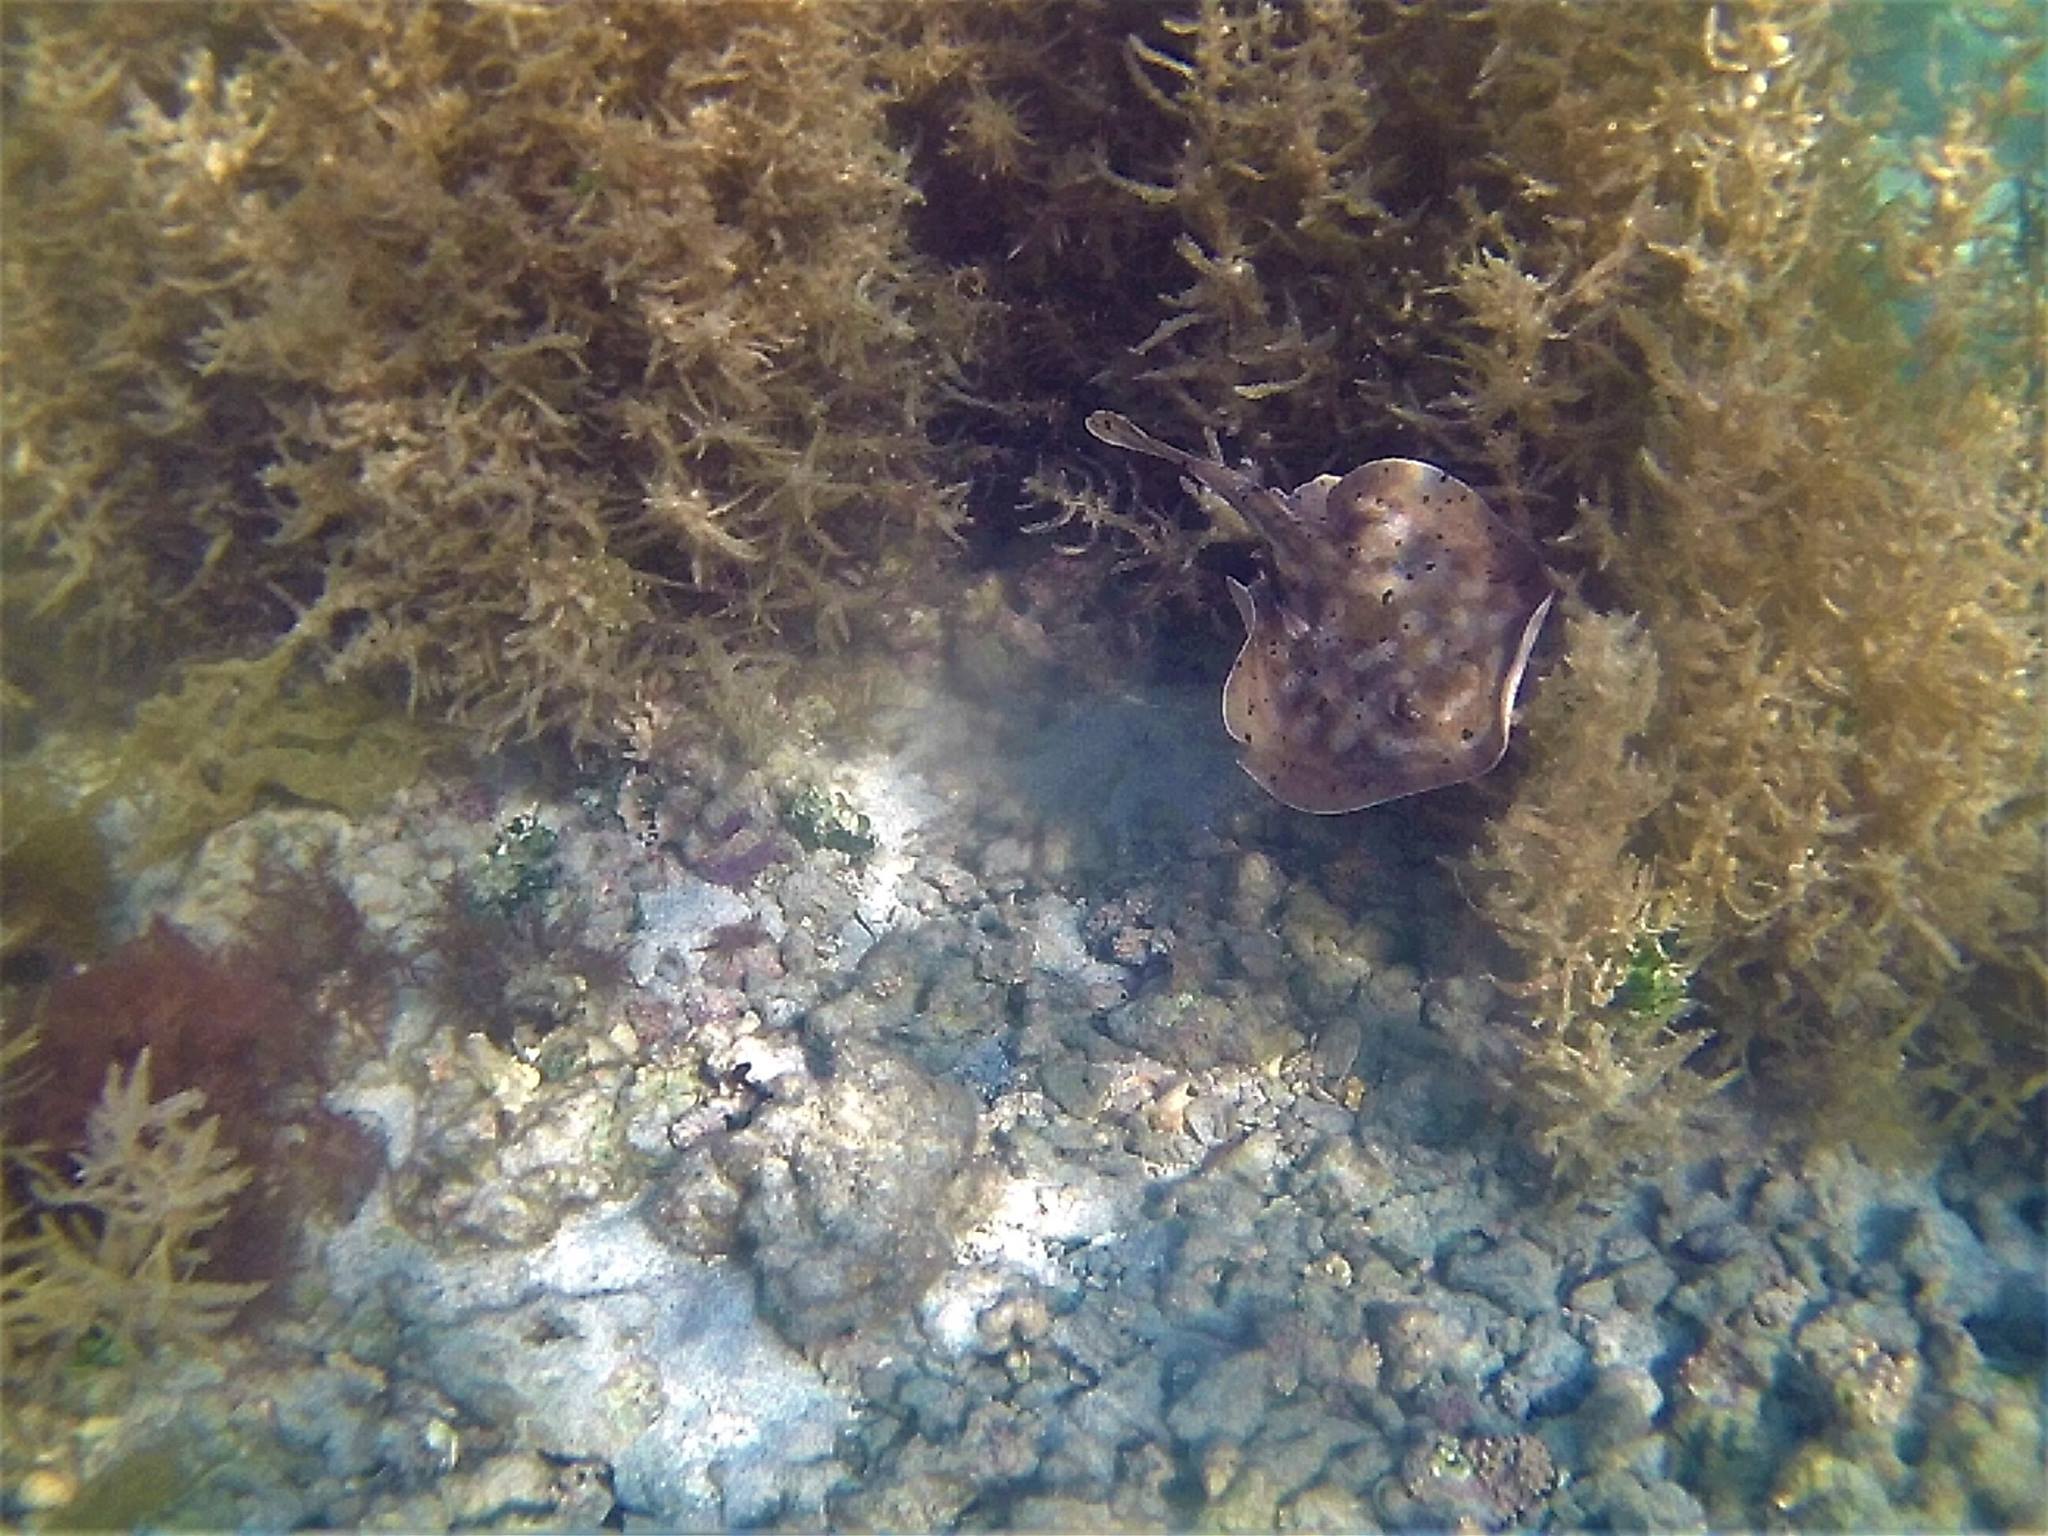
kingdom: Animalia
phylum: Chordata
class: Elasmobranchii
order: Myliobatiformes
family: Urotrygonidae
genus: Urobatis
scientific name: Urobatis concentricus
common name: Bull's-eye stingray
